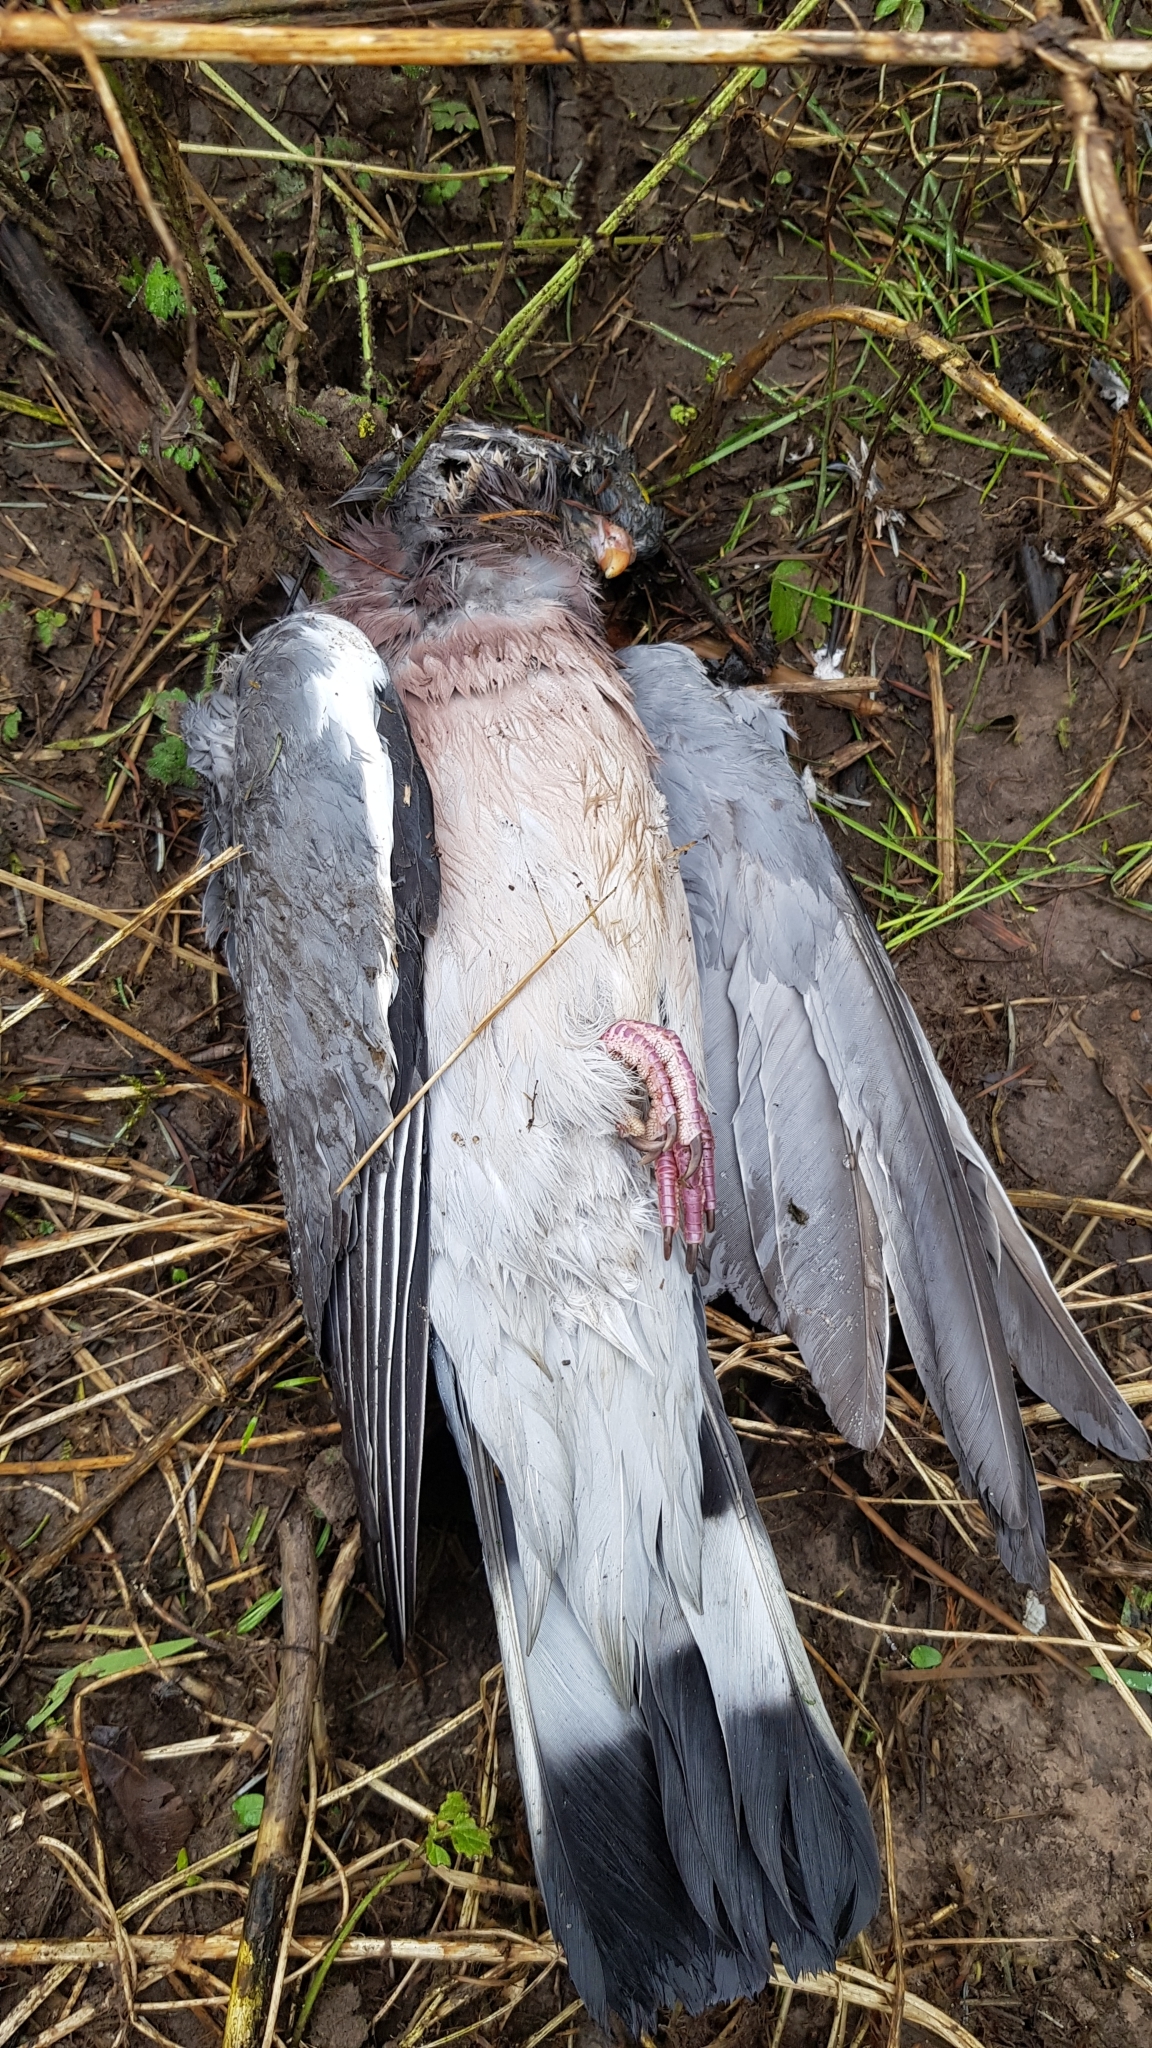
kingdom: Animalia
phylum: Chordata
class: Aves
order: Columbiformes
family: Columbidae
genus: Columba
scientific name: Columba palumbus
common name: Common wood pigeon
